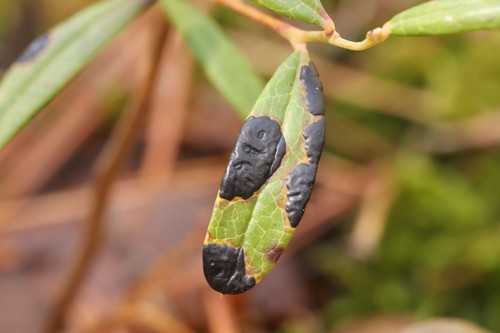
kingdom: Fungi
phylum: Ascomycota
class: Leotiomycetes
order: Rhytismatales
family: Rhytismataceae
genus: Rhytisma
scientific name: Rhytisma andromedae
